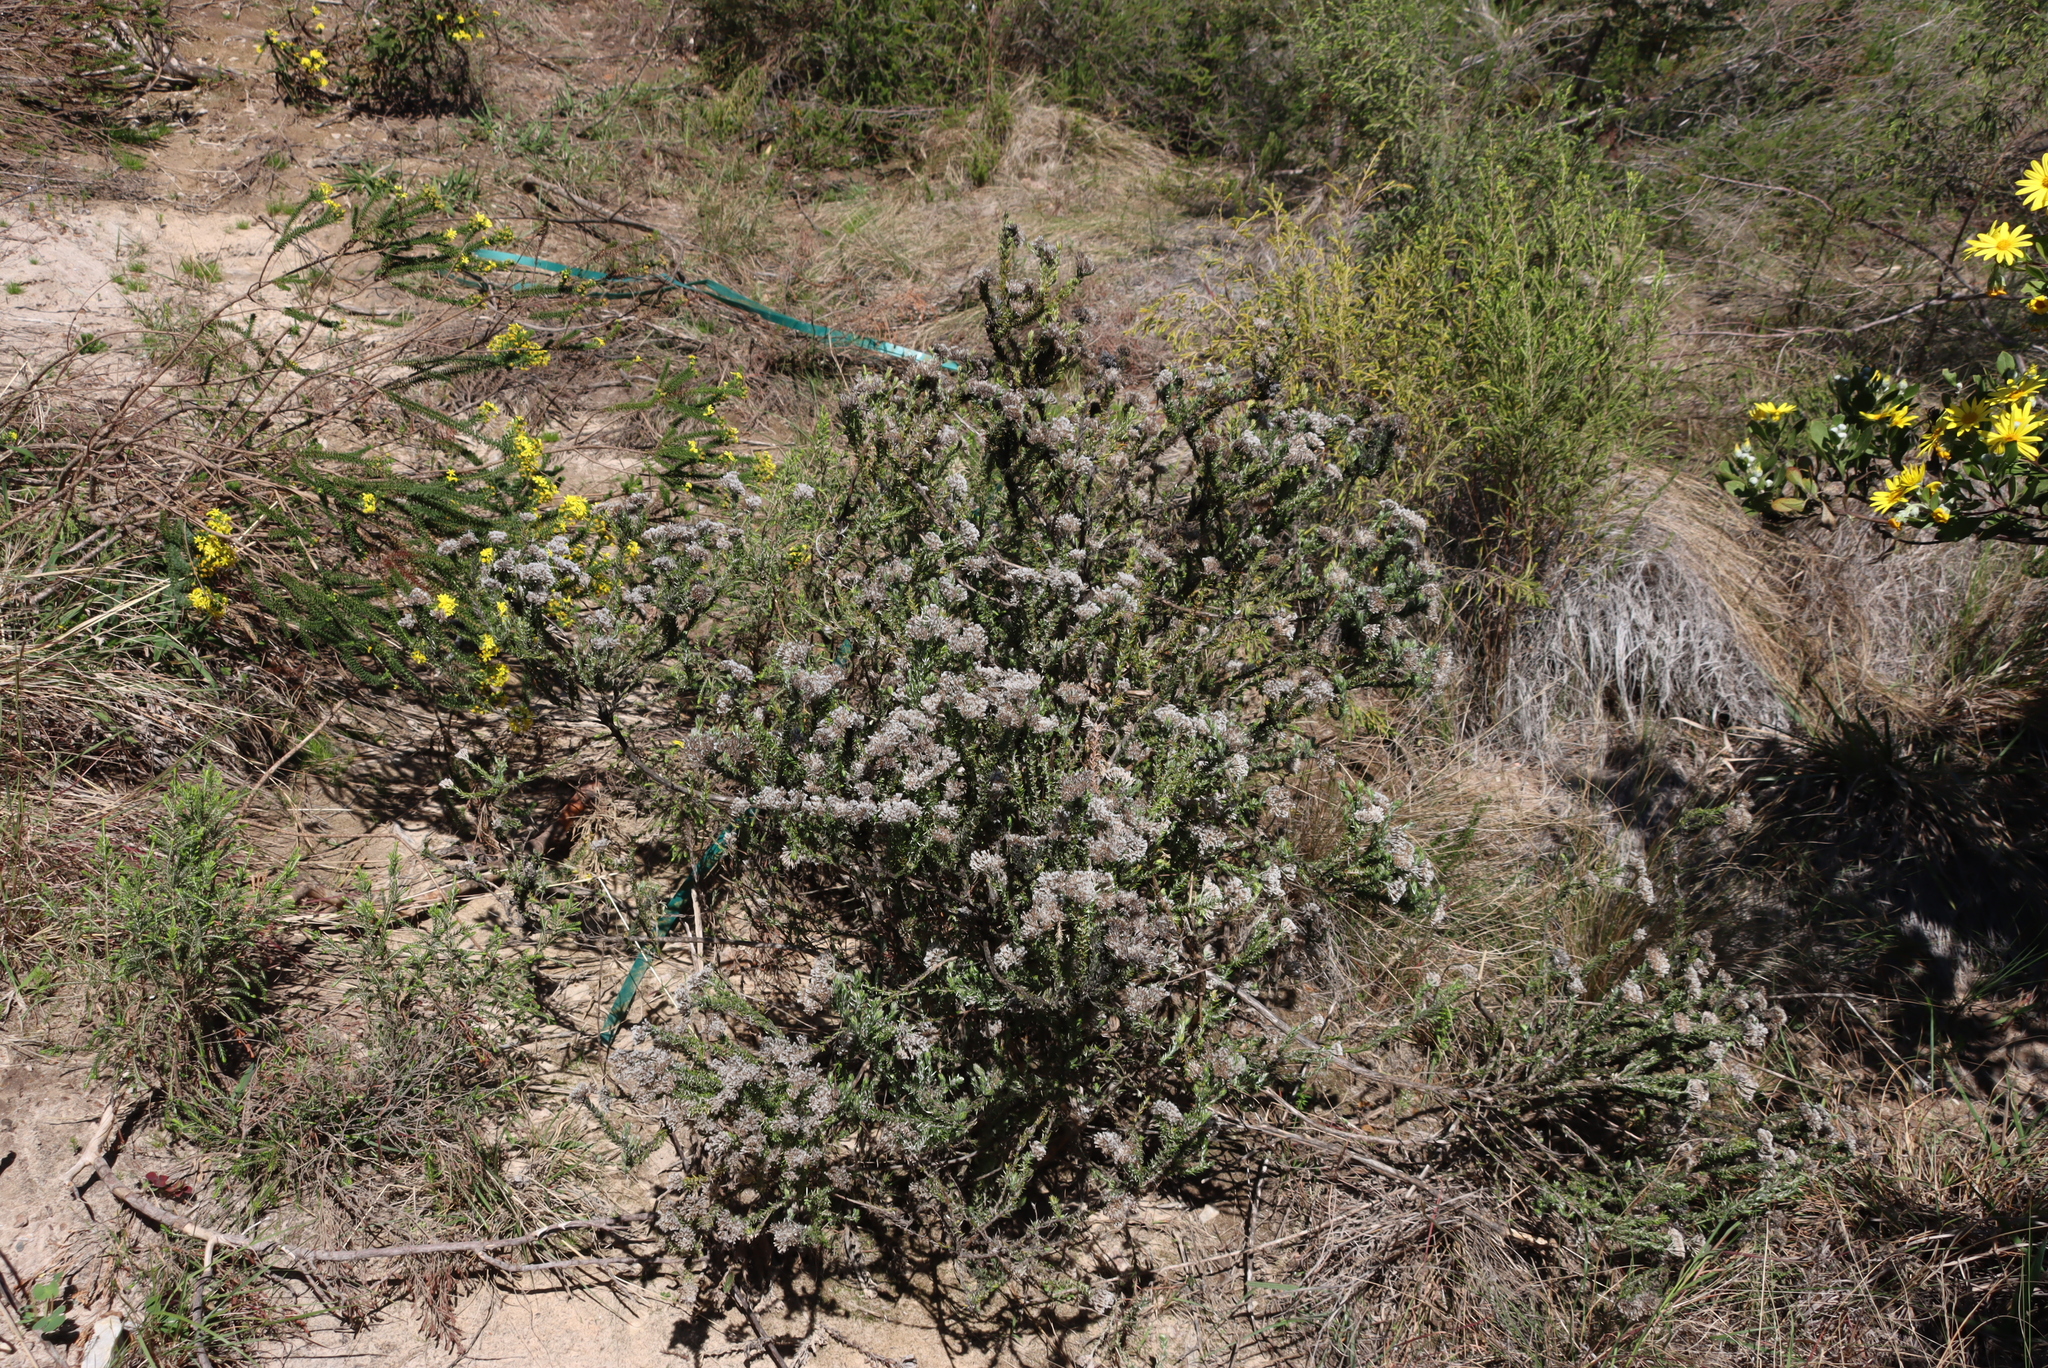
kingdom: Plantae
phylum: Tracheophyta
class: Magnoliopsida
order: Asterales
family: Asteraceae
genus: Metalasia
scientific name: Metalasia pungens
